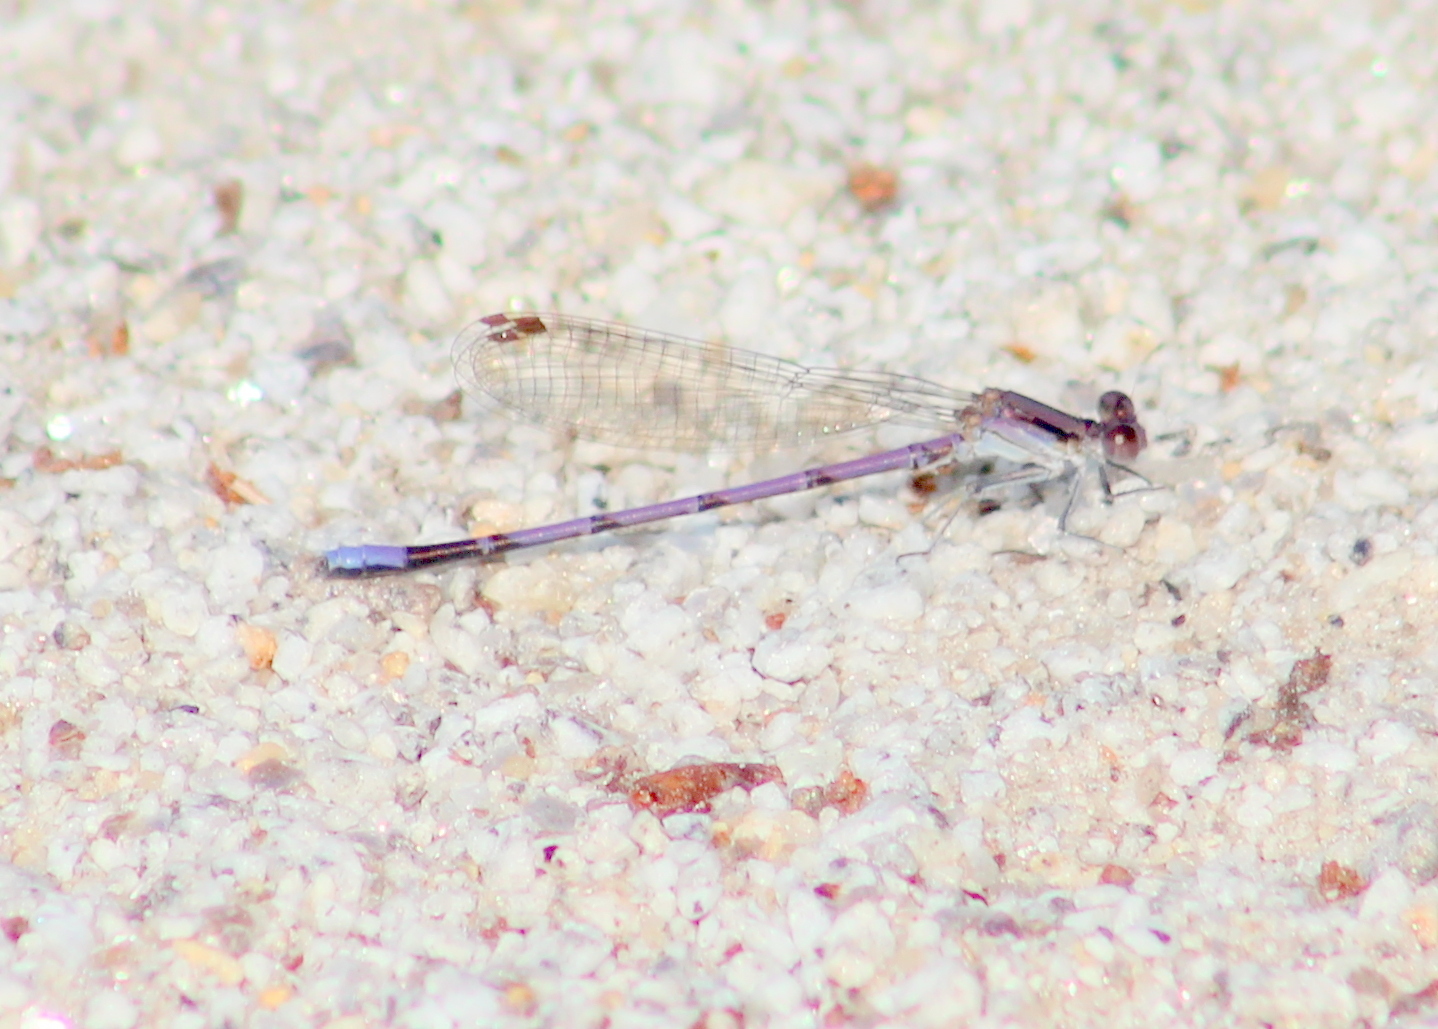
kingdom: Animalia
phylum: Arthropoda
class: Insecta
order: Odonata
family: Coenagrionidae
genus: Argia
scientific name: Argia fumipennis
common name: Variable dancer
